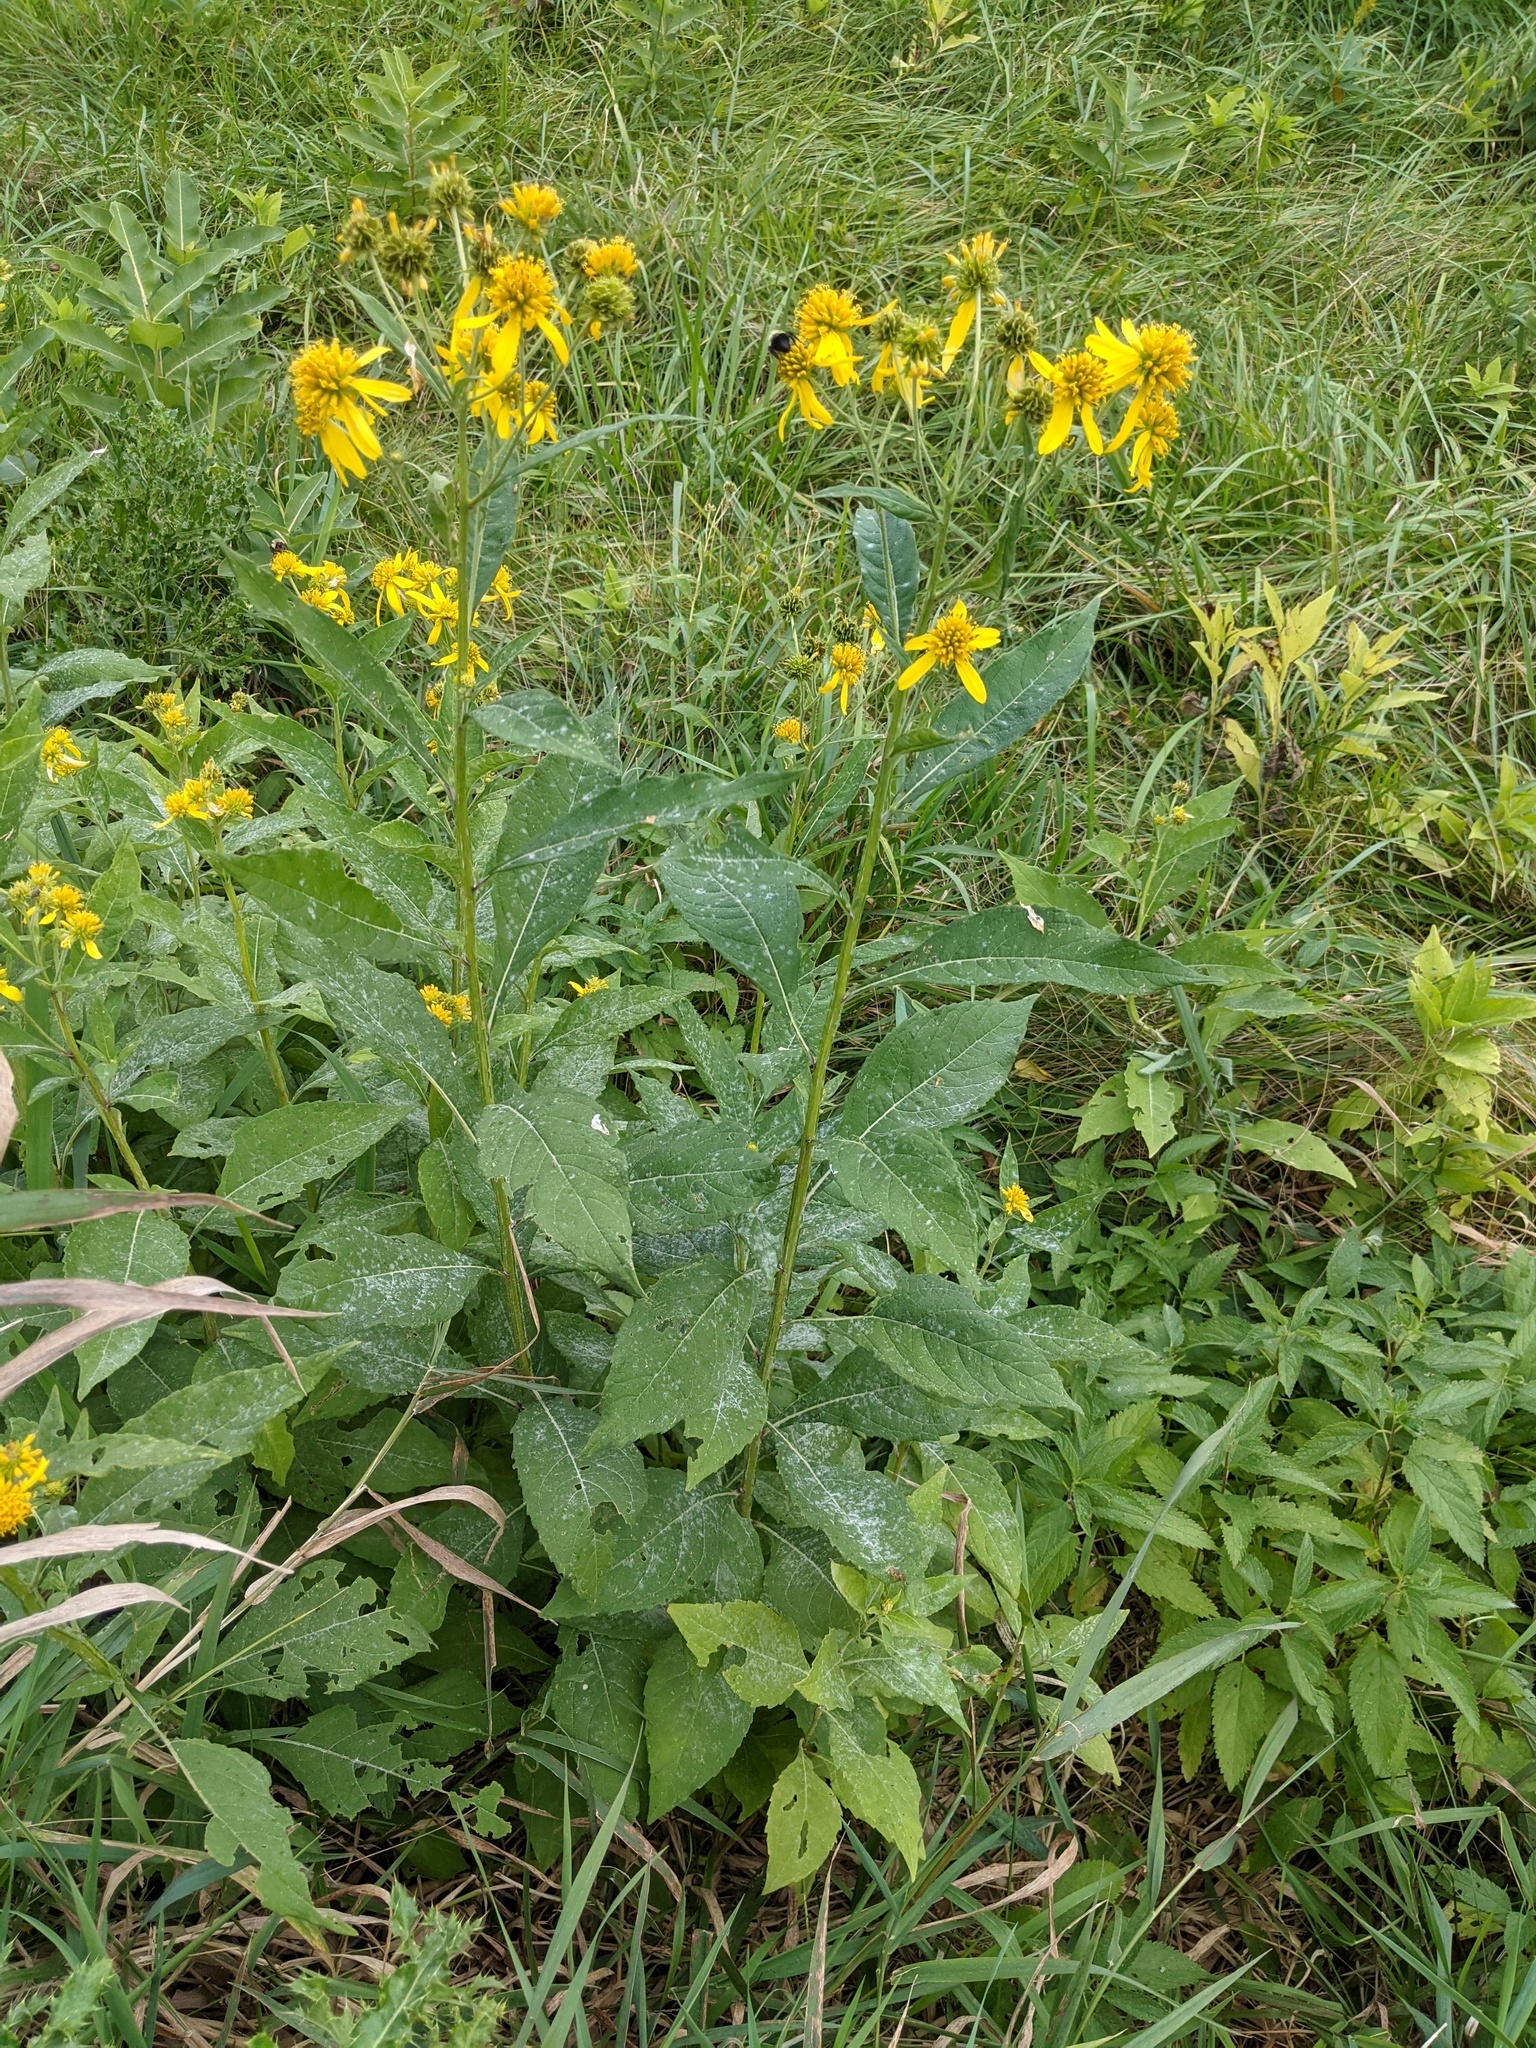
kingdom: Plantae
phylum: Tracheophyta
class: Magnoliopsida
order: Asterales
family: Asteraceae
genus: Verbesina
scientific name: Verbesina alternifolia
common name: Wingstem
